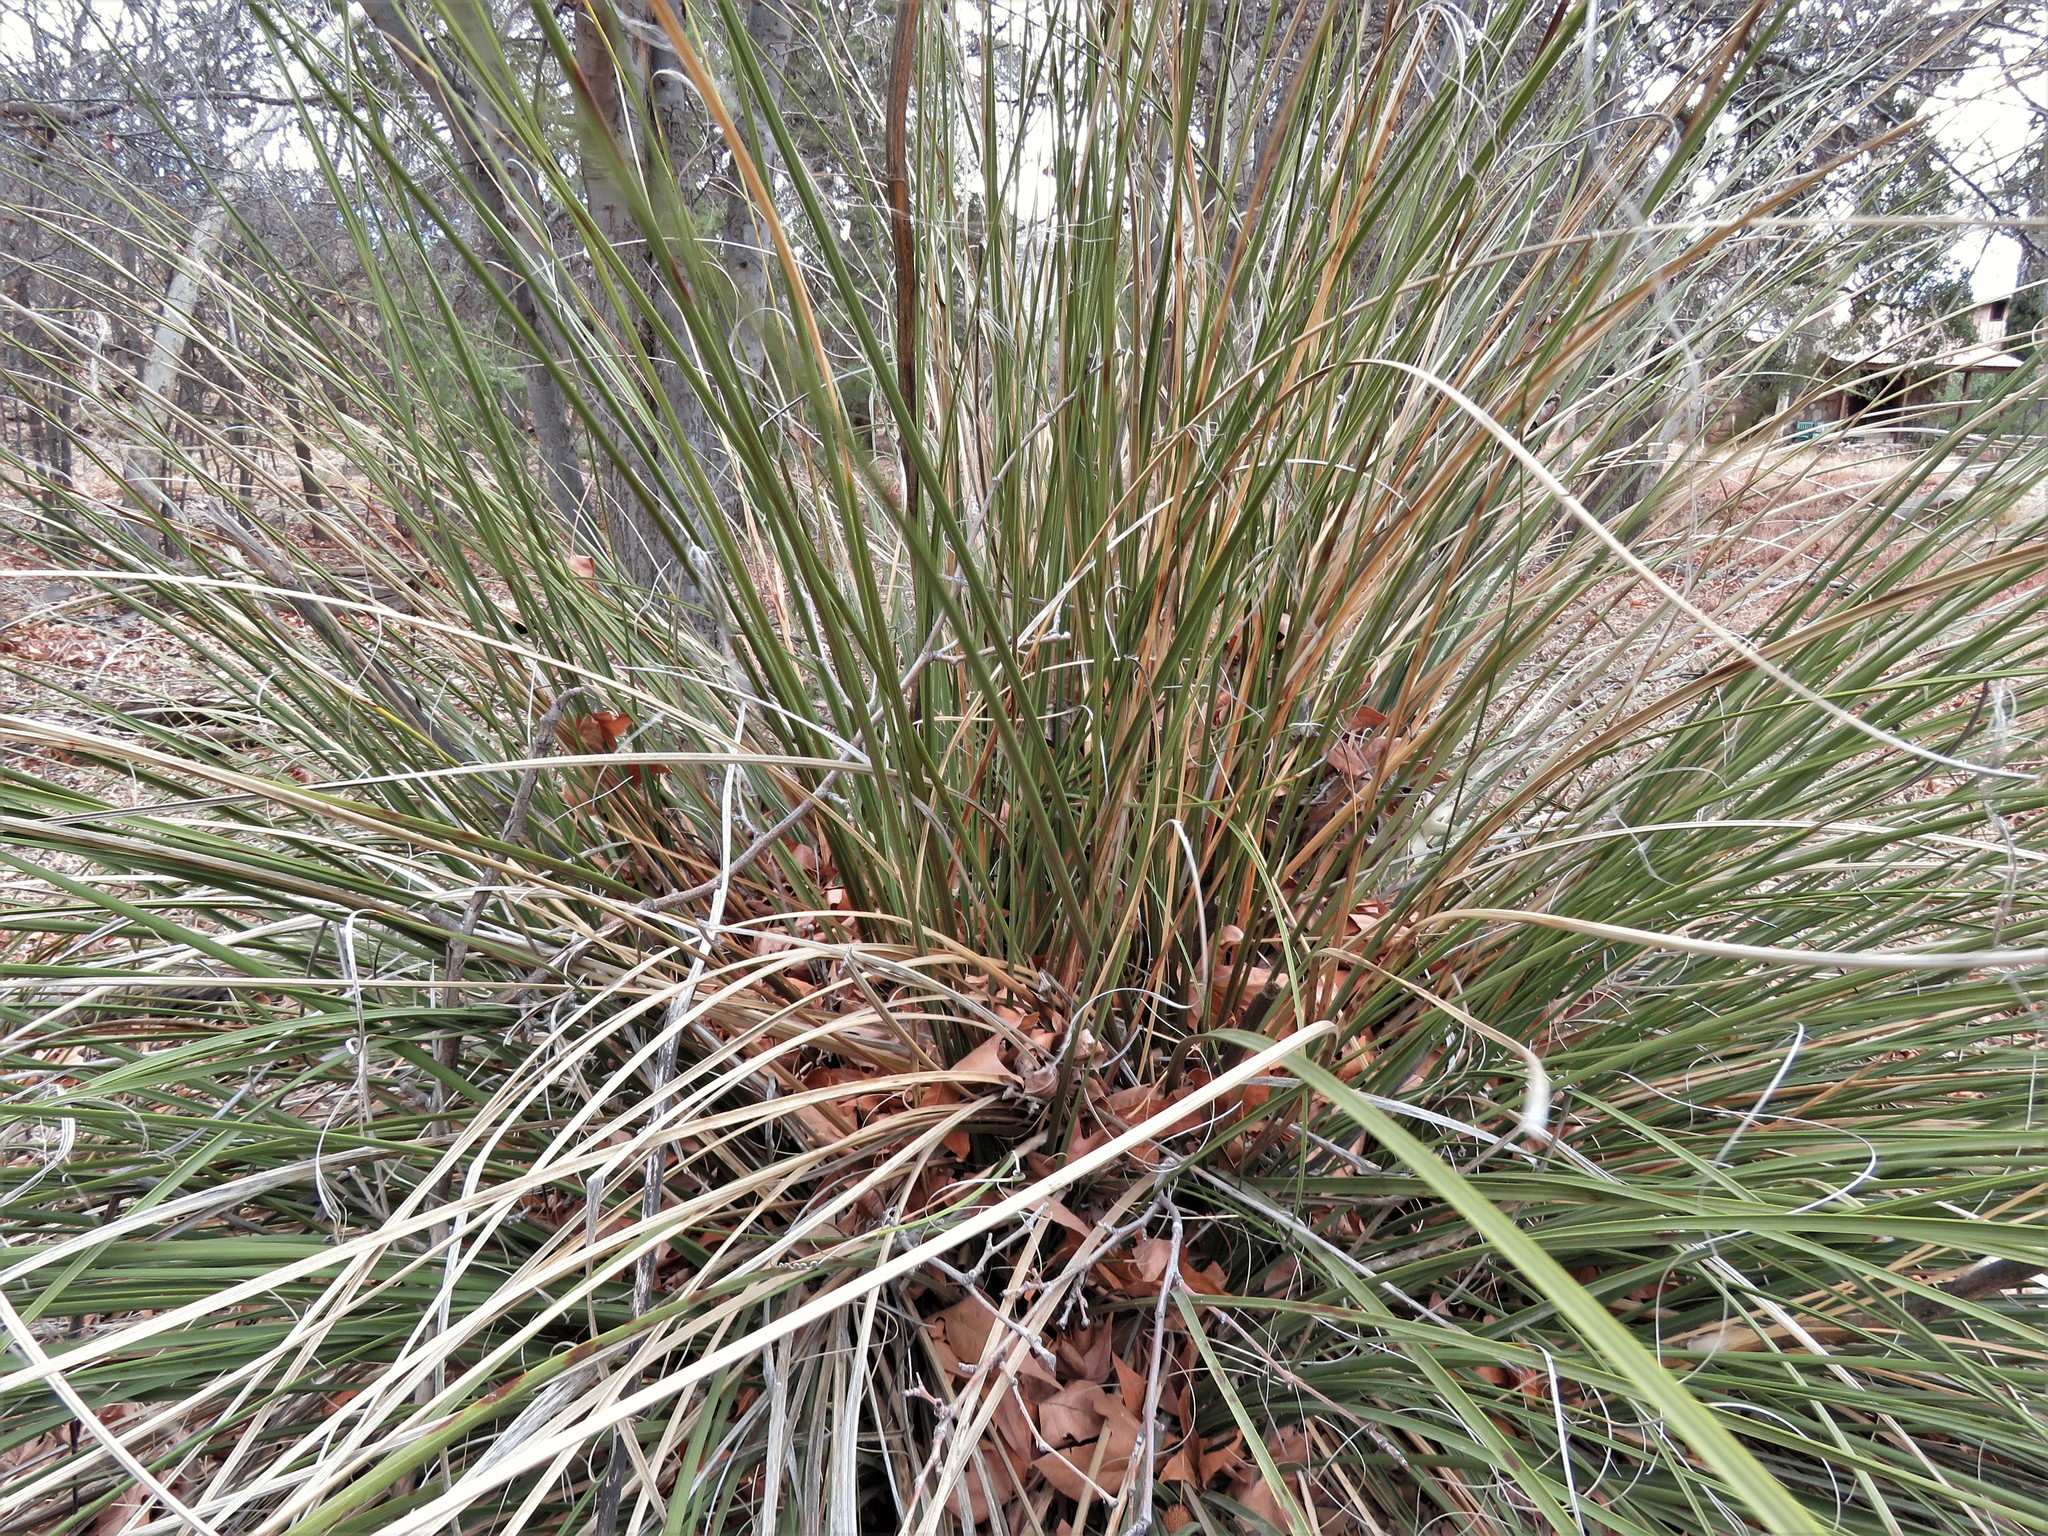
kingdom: Plantae
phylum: Tracheophyta
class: Liliopsida
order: Asparagales
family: Asparagaceae
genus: Nolina
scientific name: Nolina microcarpa
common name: Bear-grass
